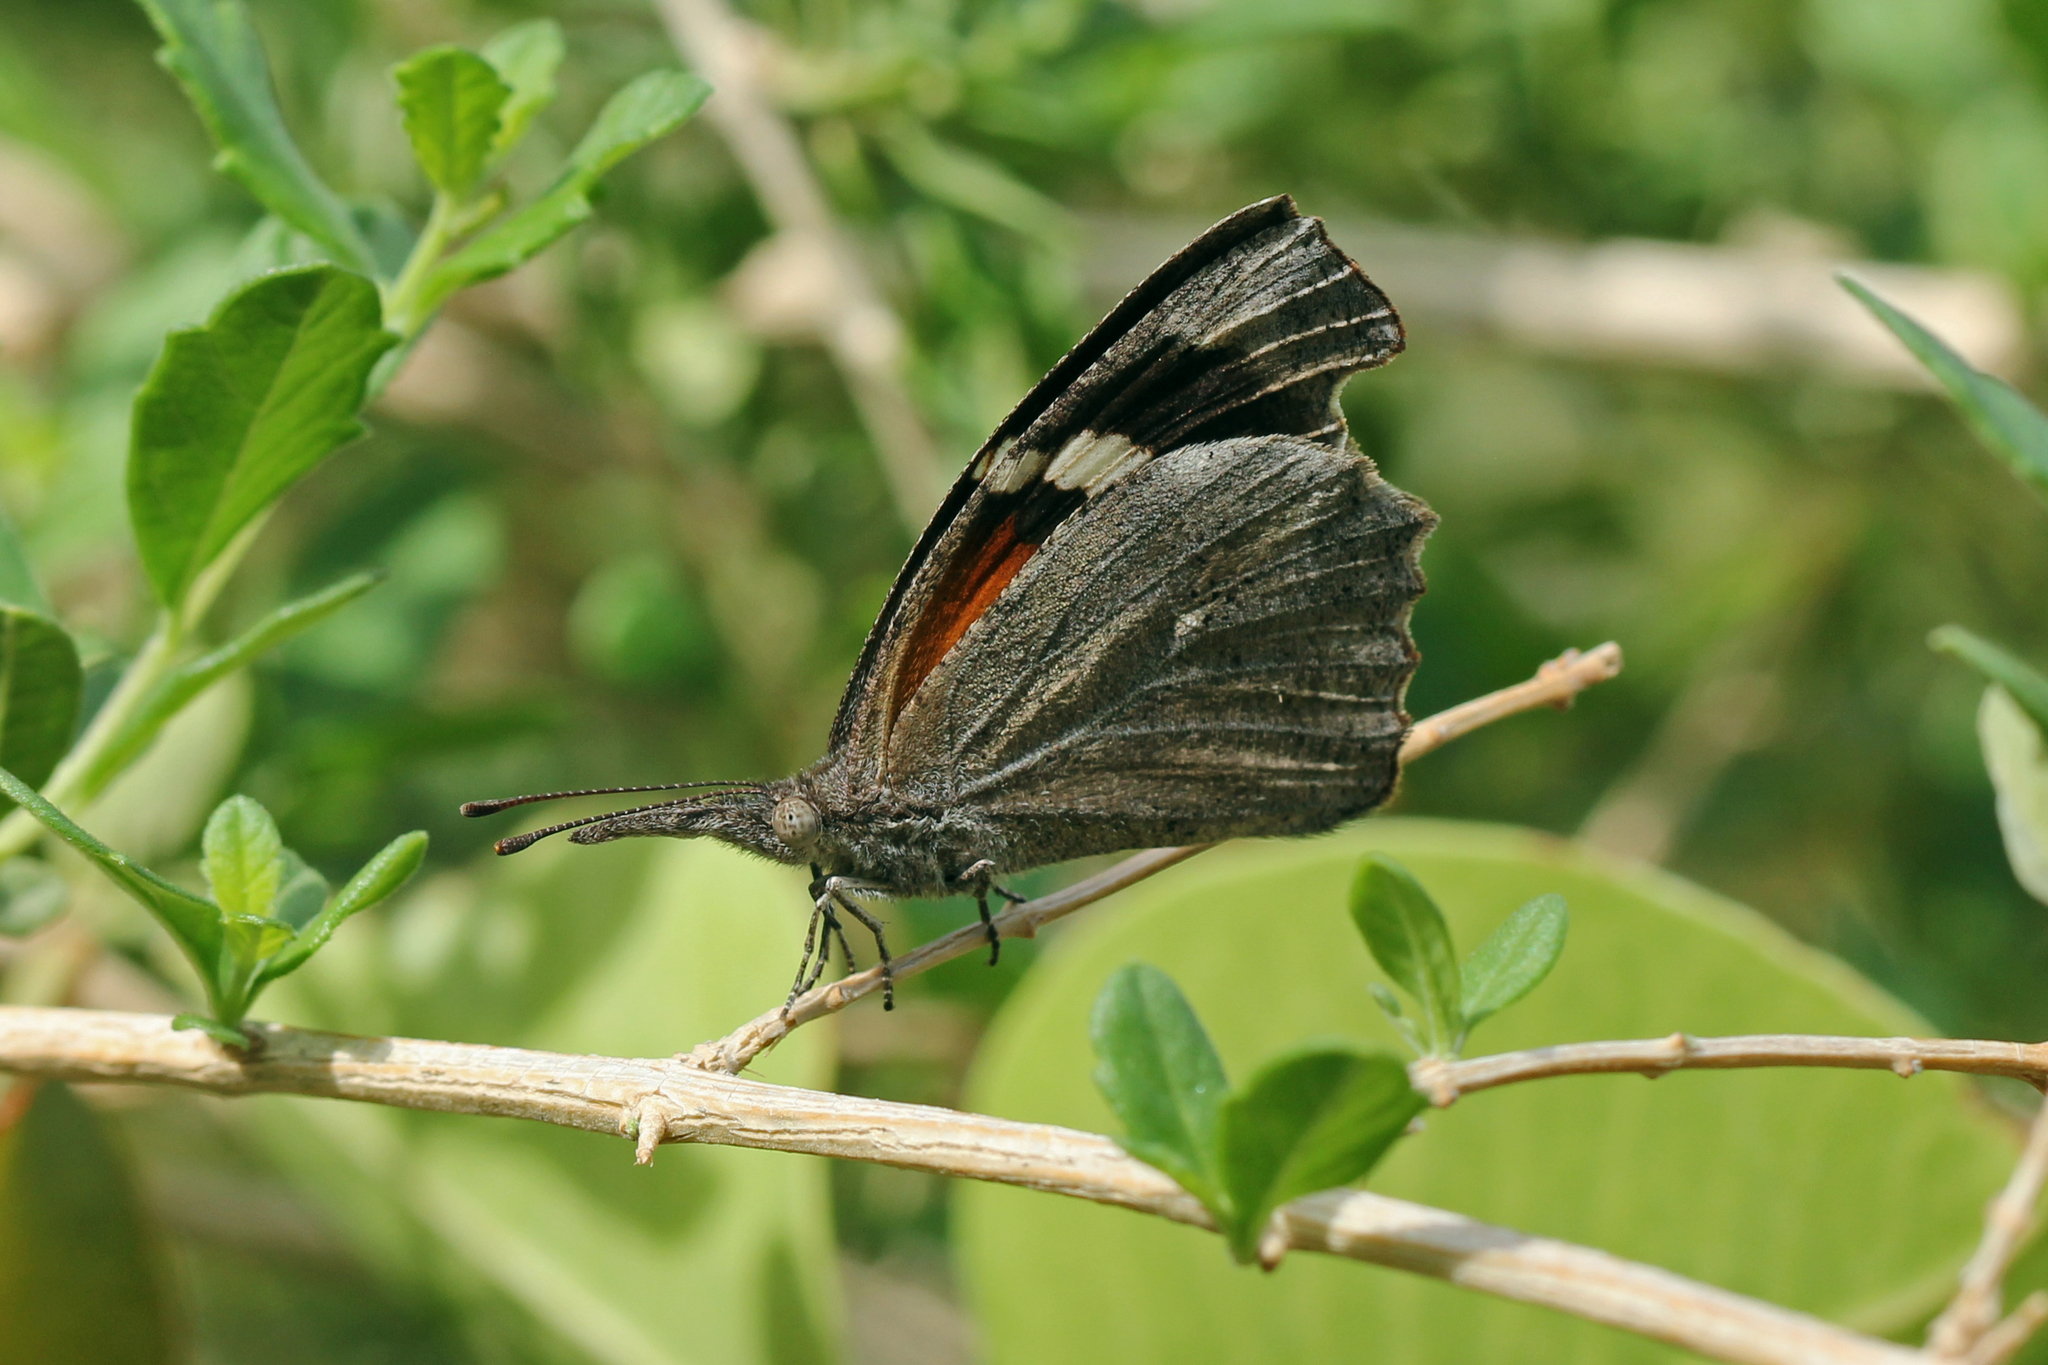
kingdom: Animalia
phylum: Arthropoda
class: Insecta
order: Lepidoptera
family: Nymphalidae
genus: Libytheana
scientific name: Libytheana carinenta
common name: American snout
